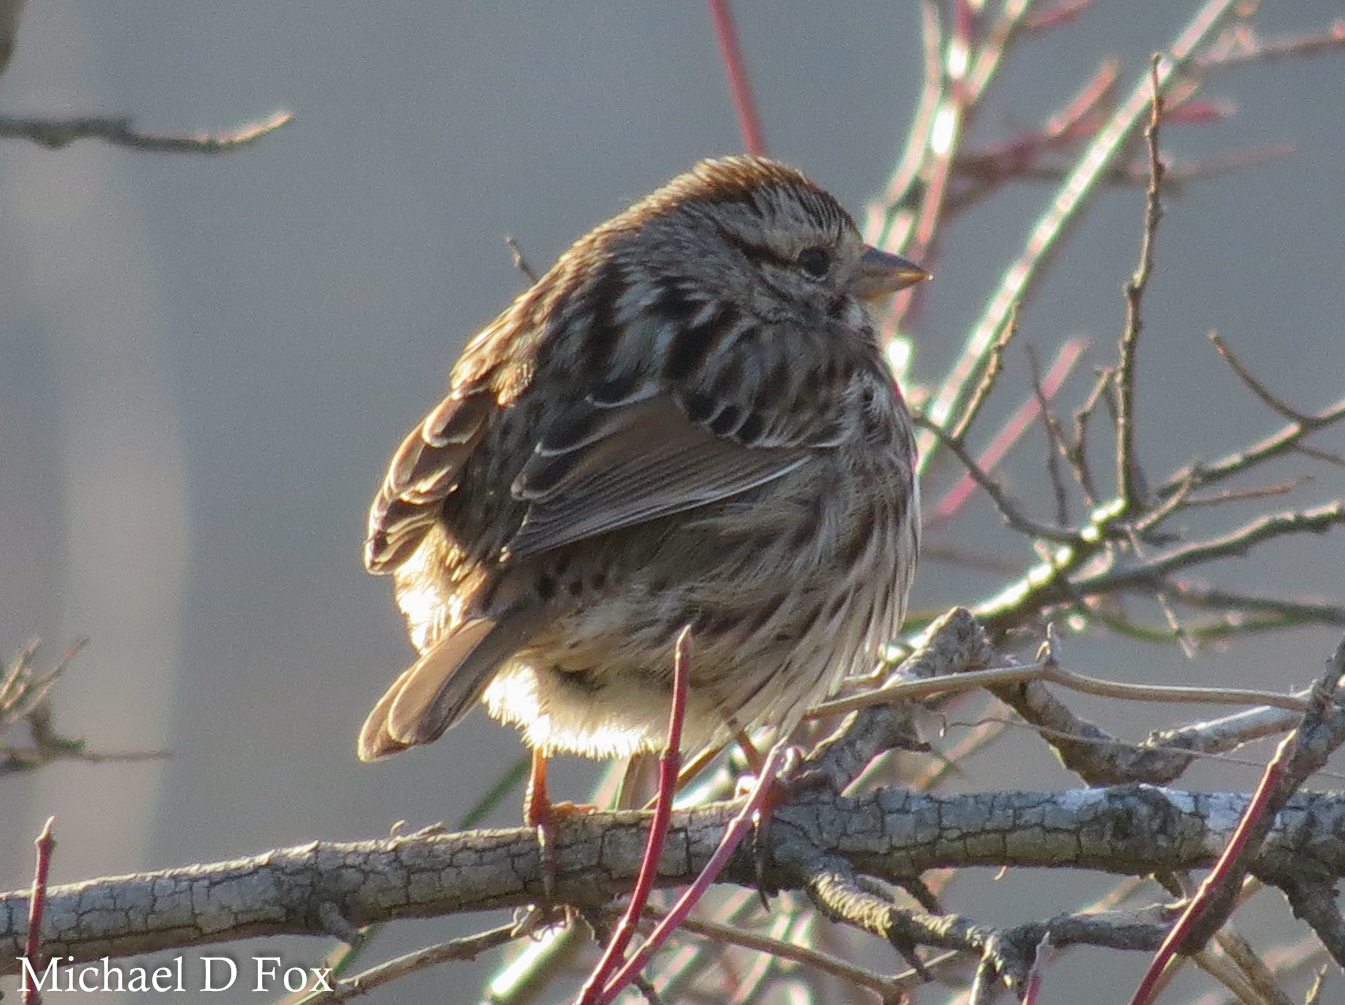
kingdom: Animalia
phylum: Chordata
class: Aves
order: Passeriformes
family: Passerellidae
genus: Melospiza
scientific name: Melospiza lincolnii
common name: Lincoln's sparrow
